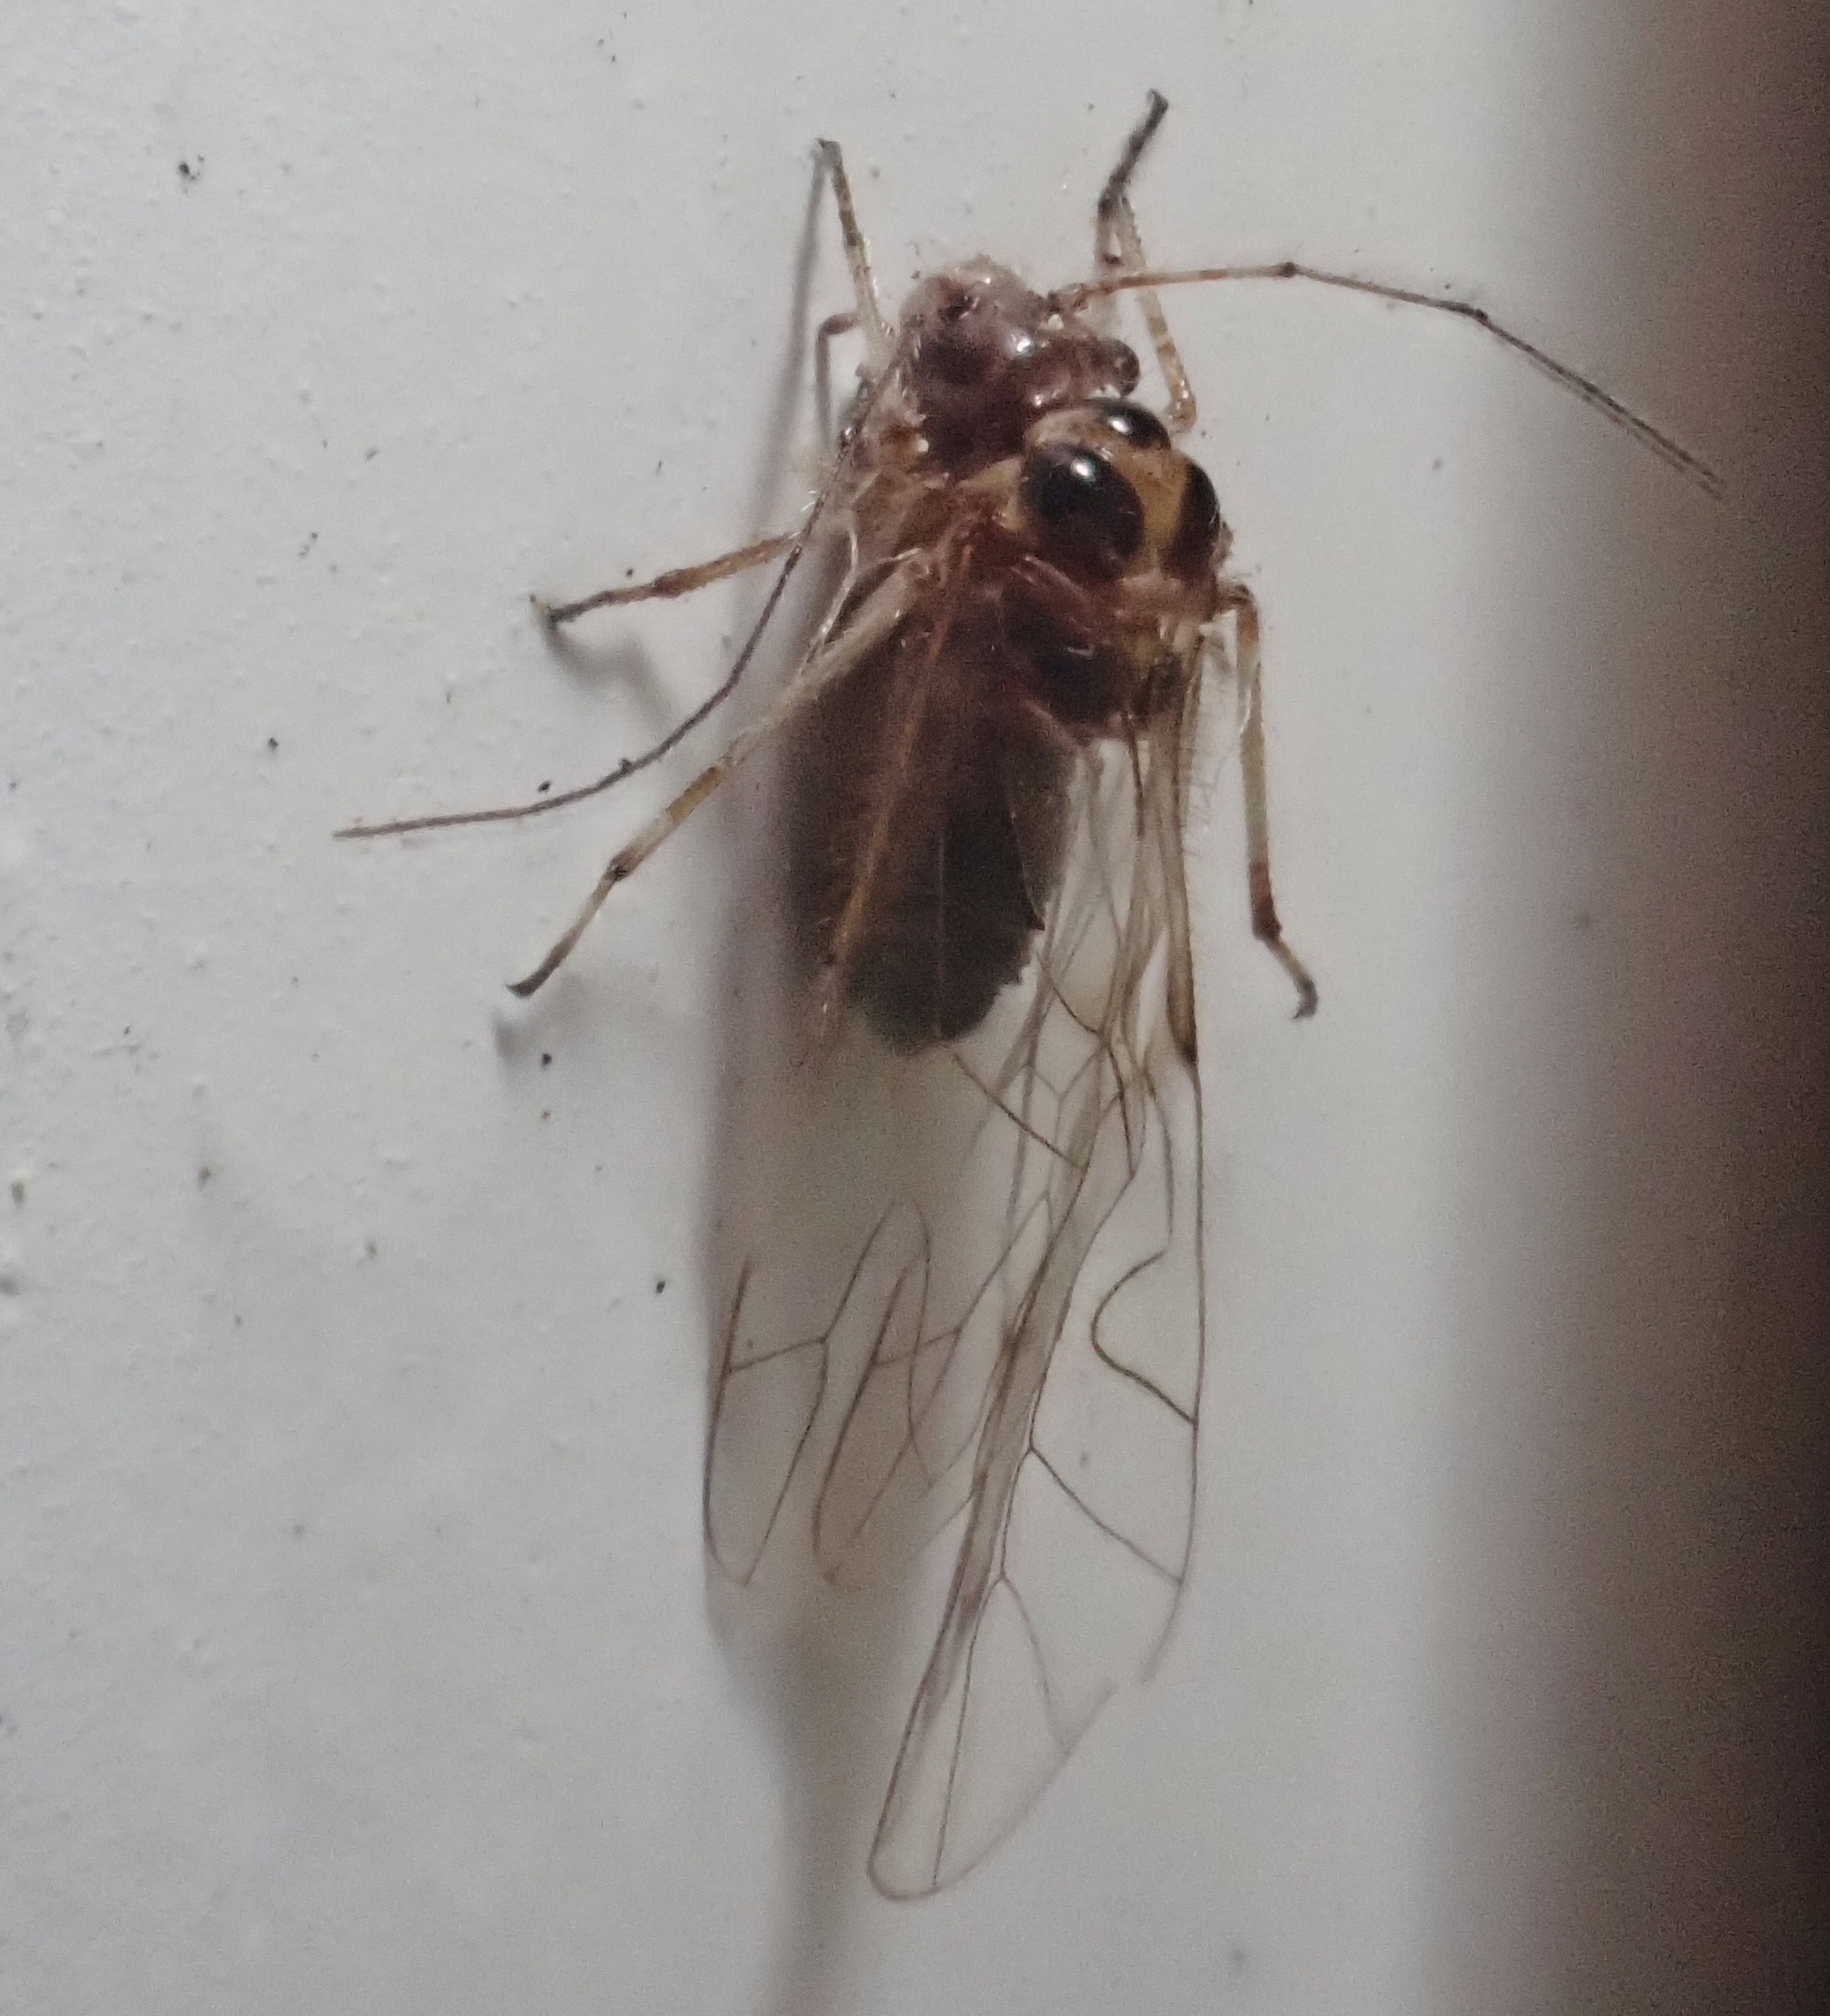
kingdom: Animalia
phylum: Arthropoda
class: Insecta
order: Psocodea
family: Dasydemellidae
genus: Teliapsocus
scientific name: Teliapsocus conterminus
